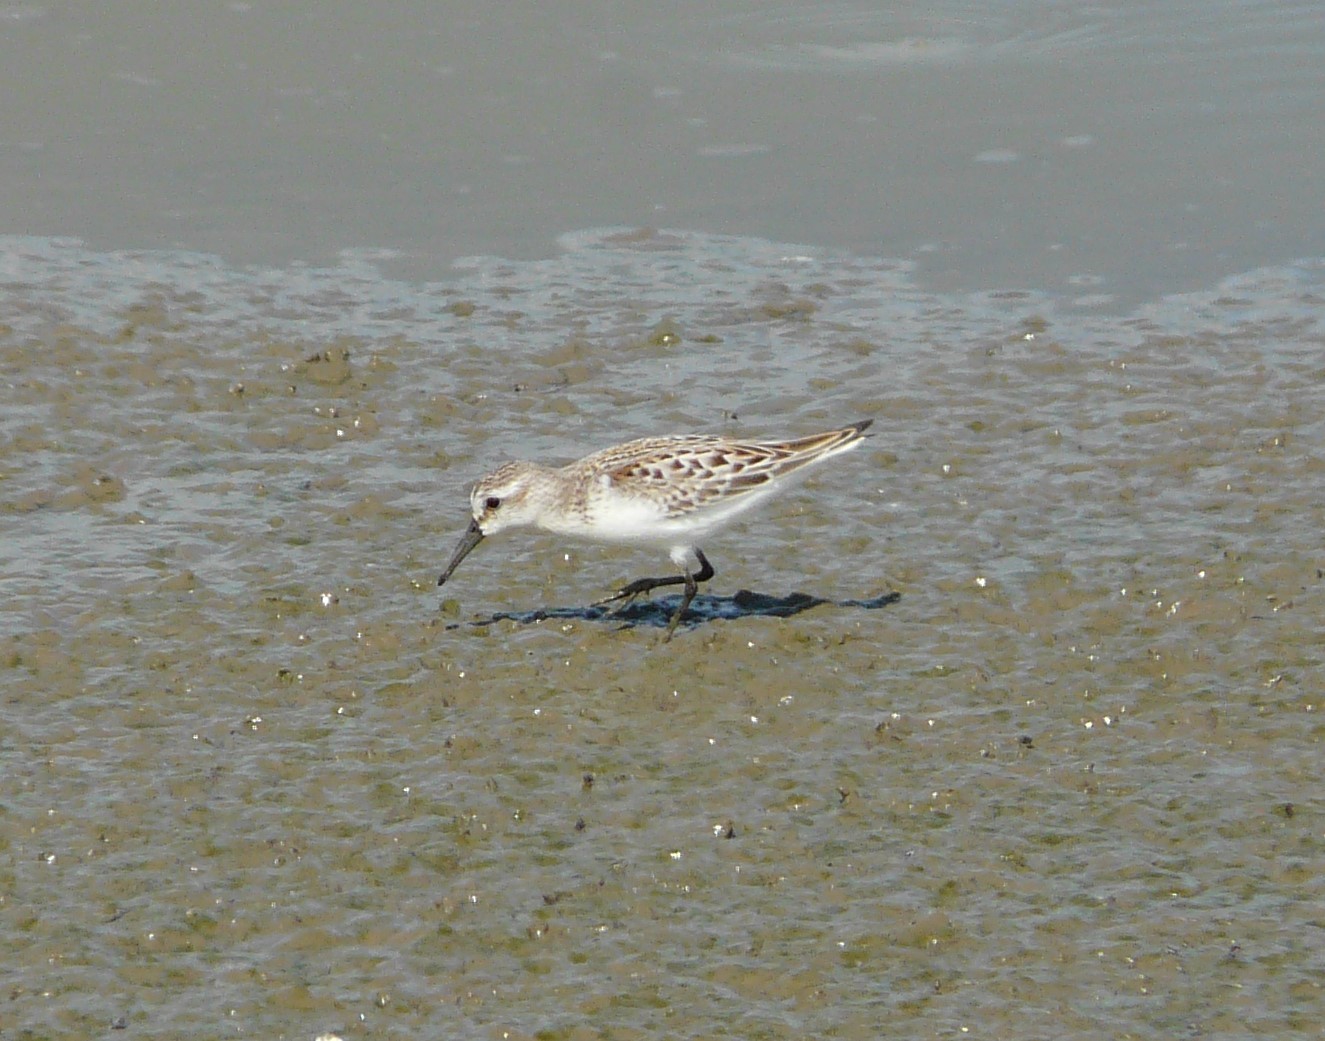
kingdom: Animalia
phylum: Chordata
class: Aves
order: Charadriiformes
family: Scolopacidae
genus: Calidris
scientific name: Calidris mauri
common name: Western sandpiper
